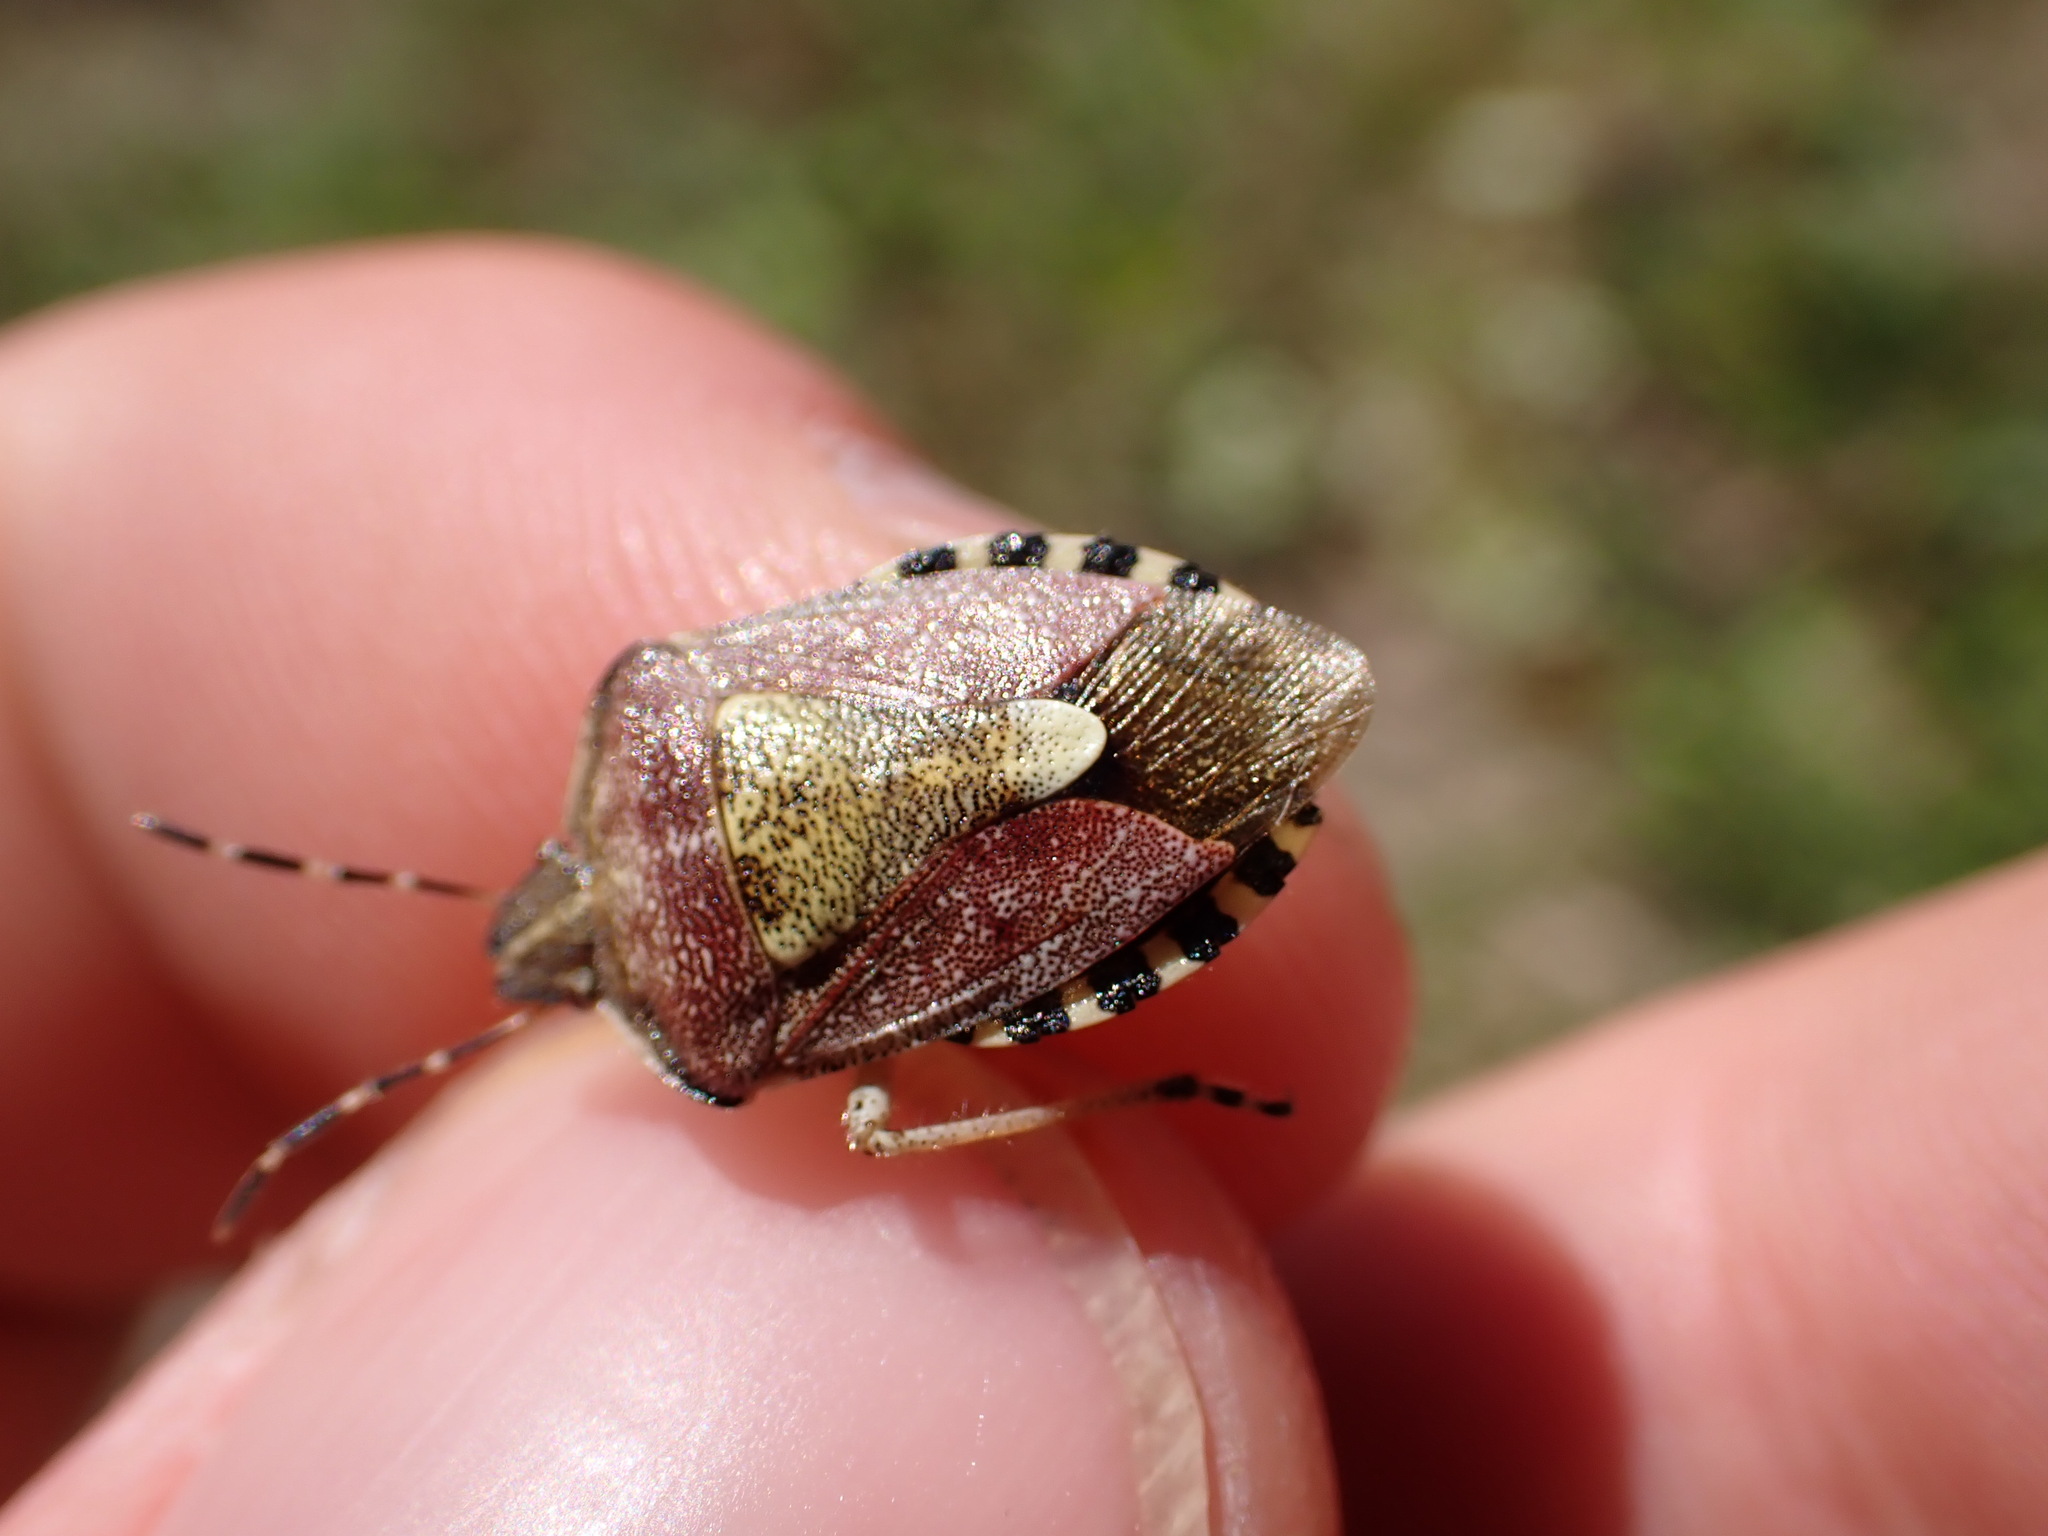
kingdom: Animalia
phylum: Arthropoda
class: Insecta
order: Hemiptera
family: Pentatomidae
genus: Dolycoris
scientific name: Dolycoris baccarum
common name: Sloe bug
